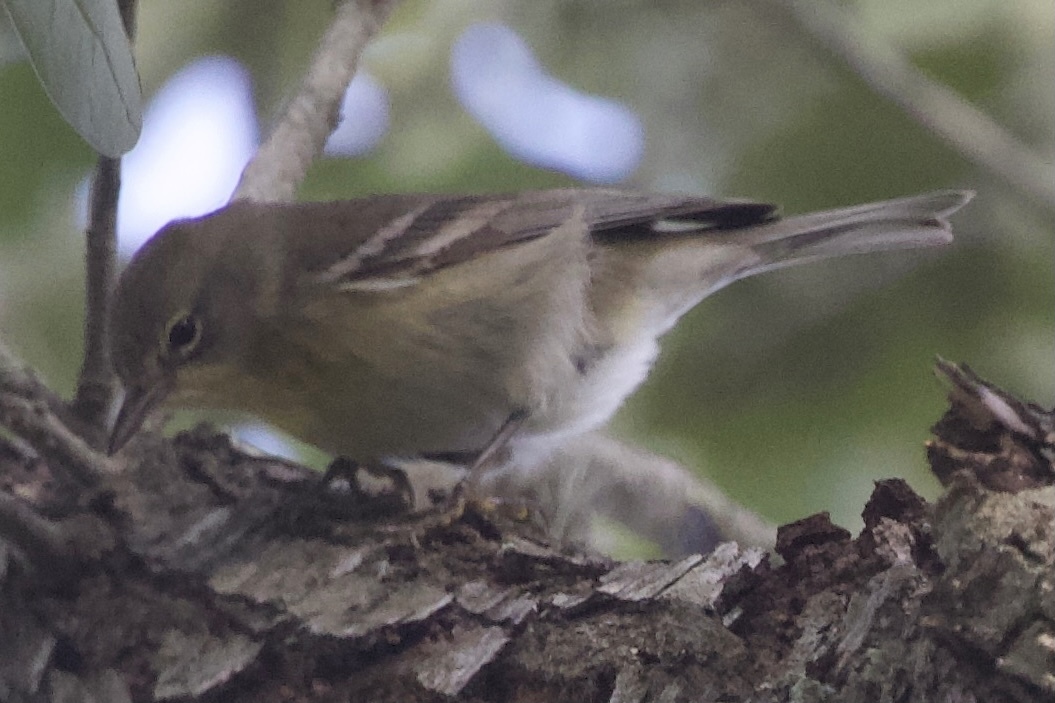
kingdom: Animalia
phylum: Chordata
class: Aves
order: Passeriformes
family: Parulidae
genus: Setophaga
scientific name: Setophaga pinus
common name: Pine warbler
